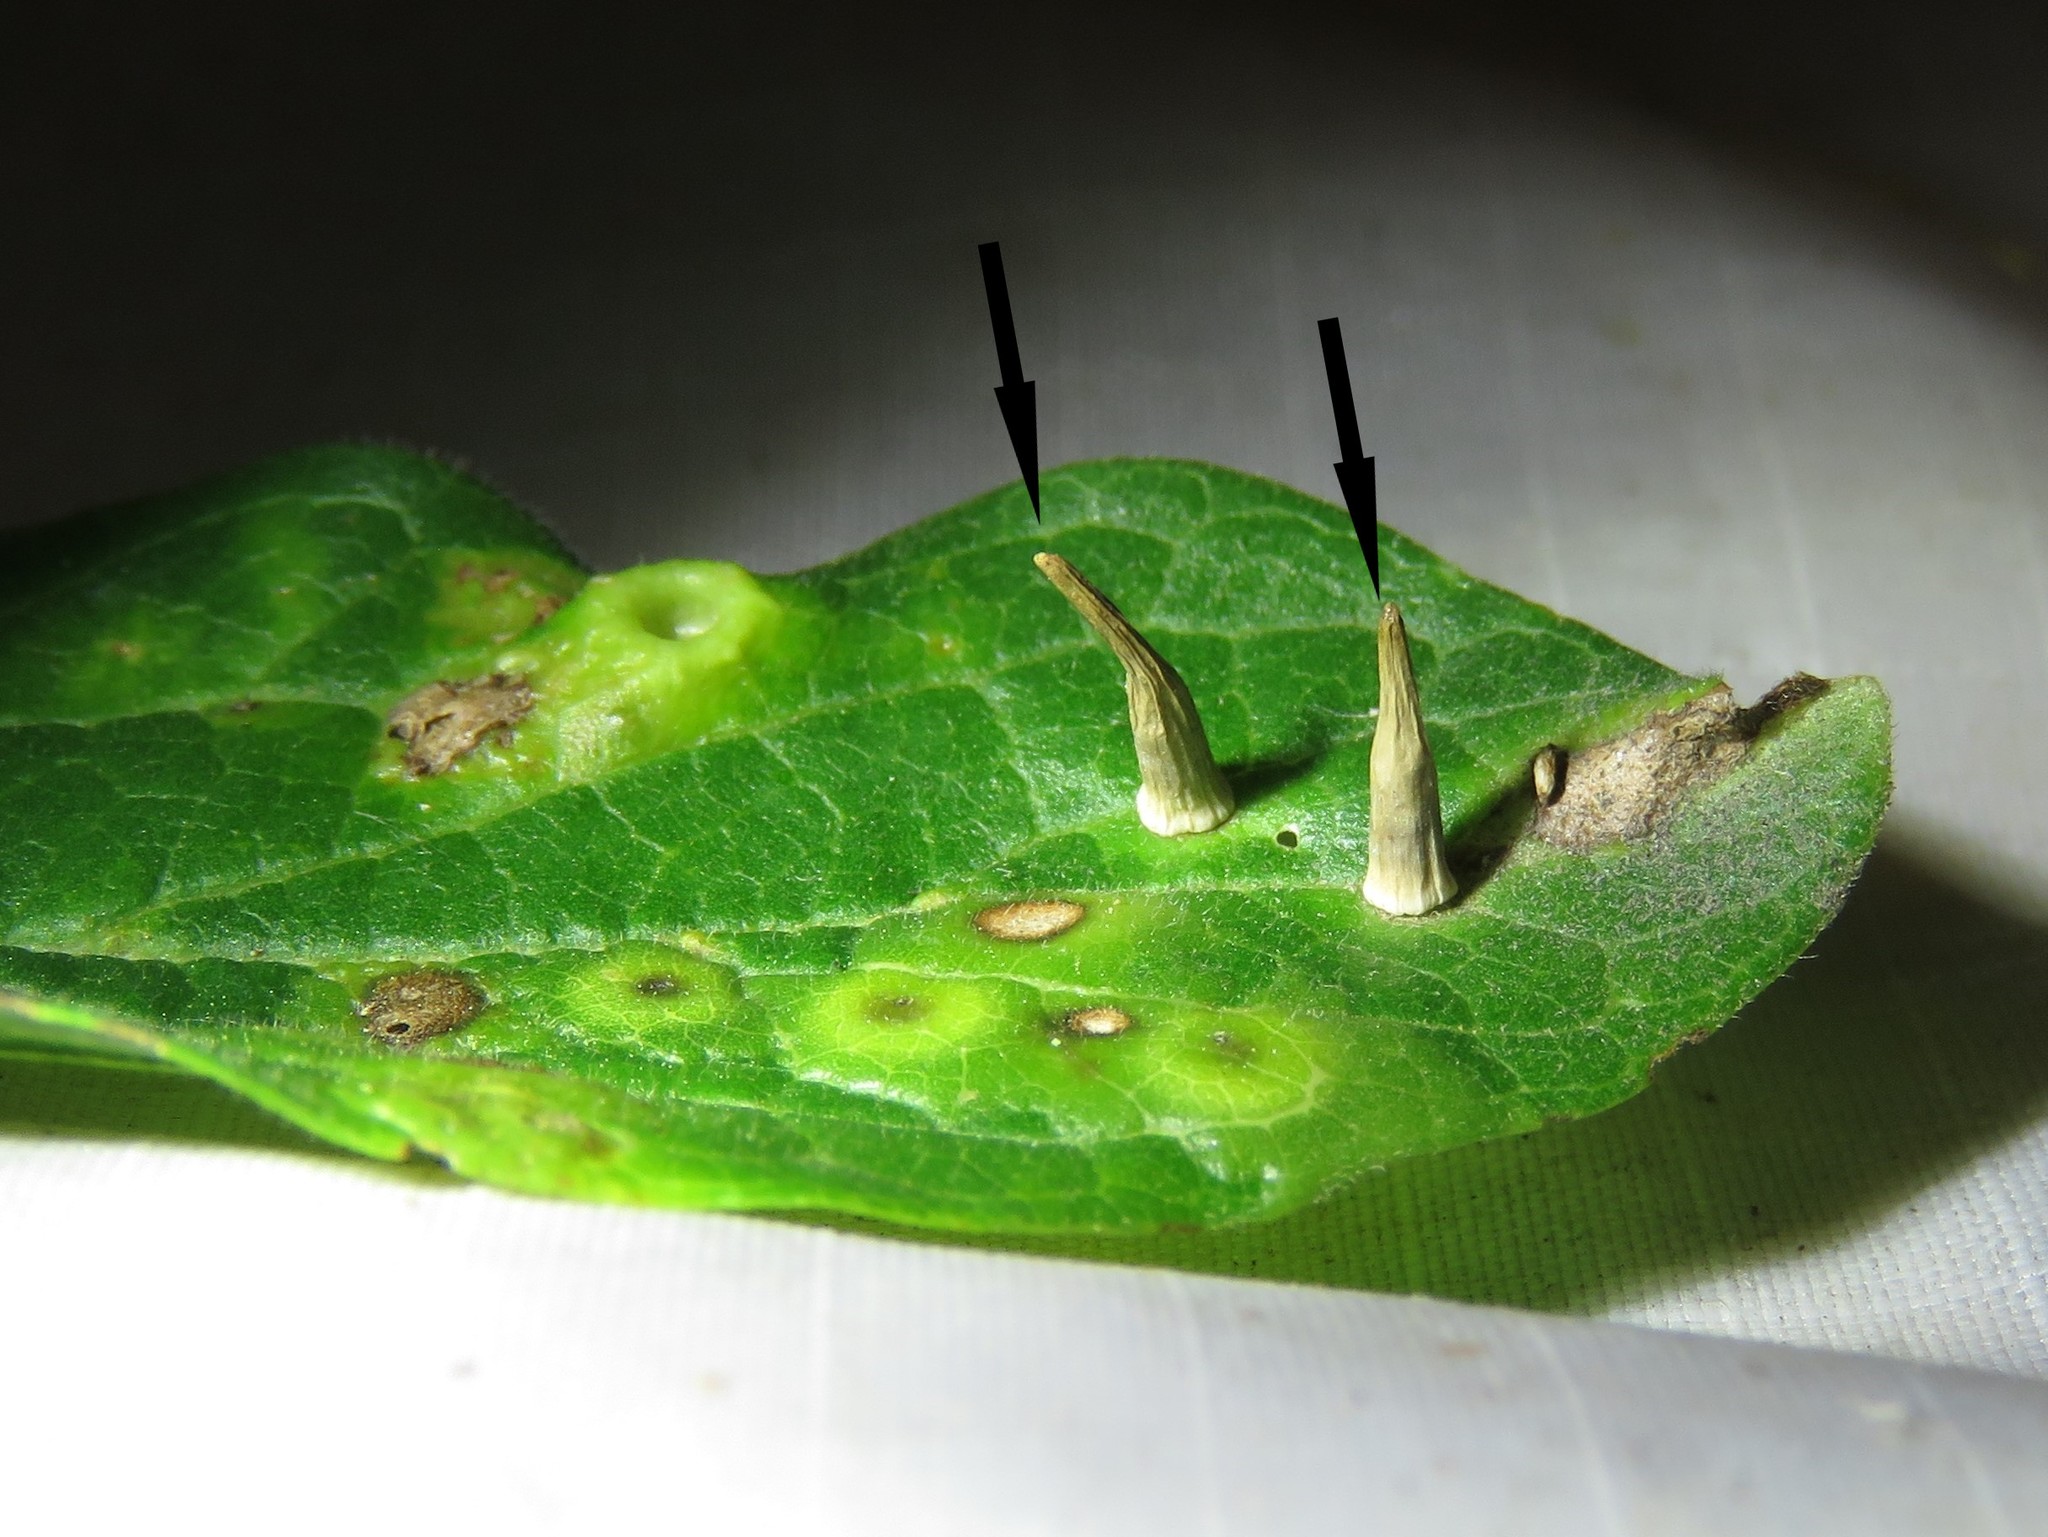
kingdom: Animalia
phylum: Arthropoda
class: Insecta
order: Diptera
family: Cecidomyiidae
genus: Celticecis
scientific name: Celticecis subulata
